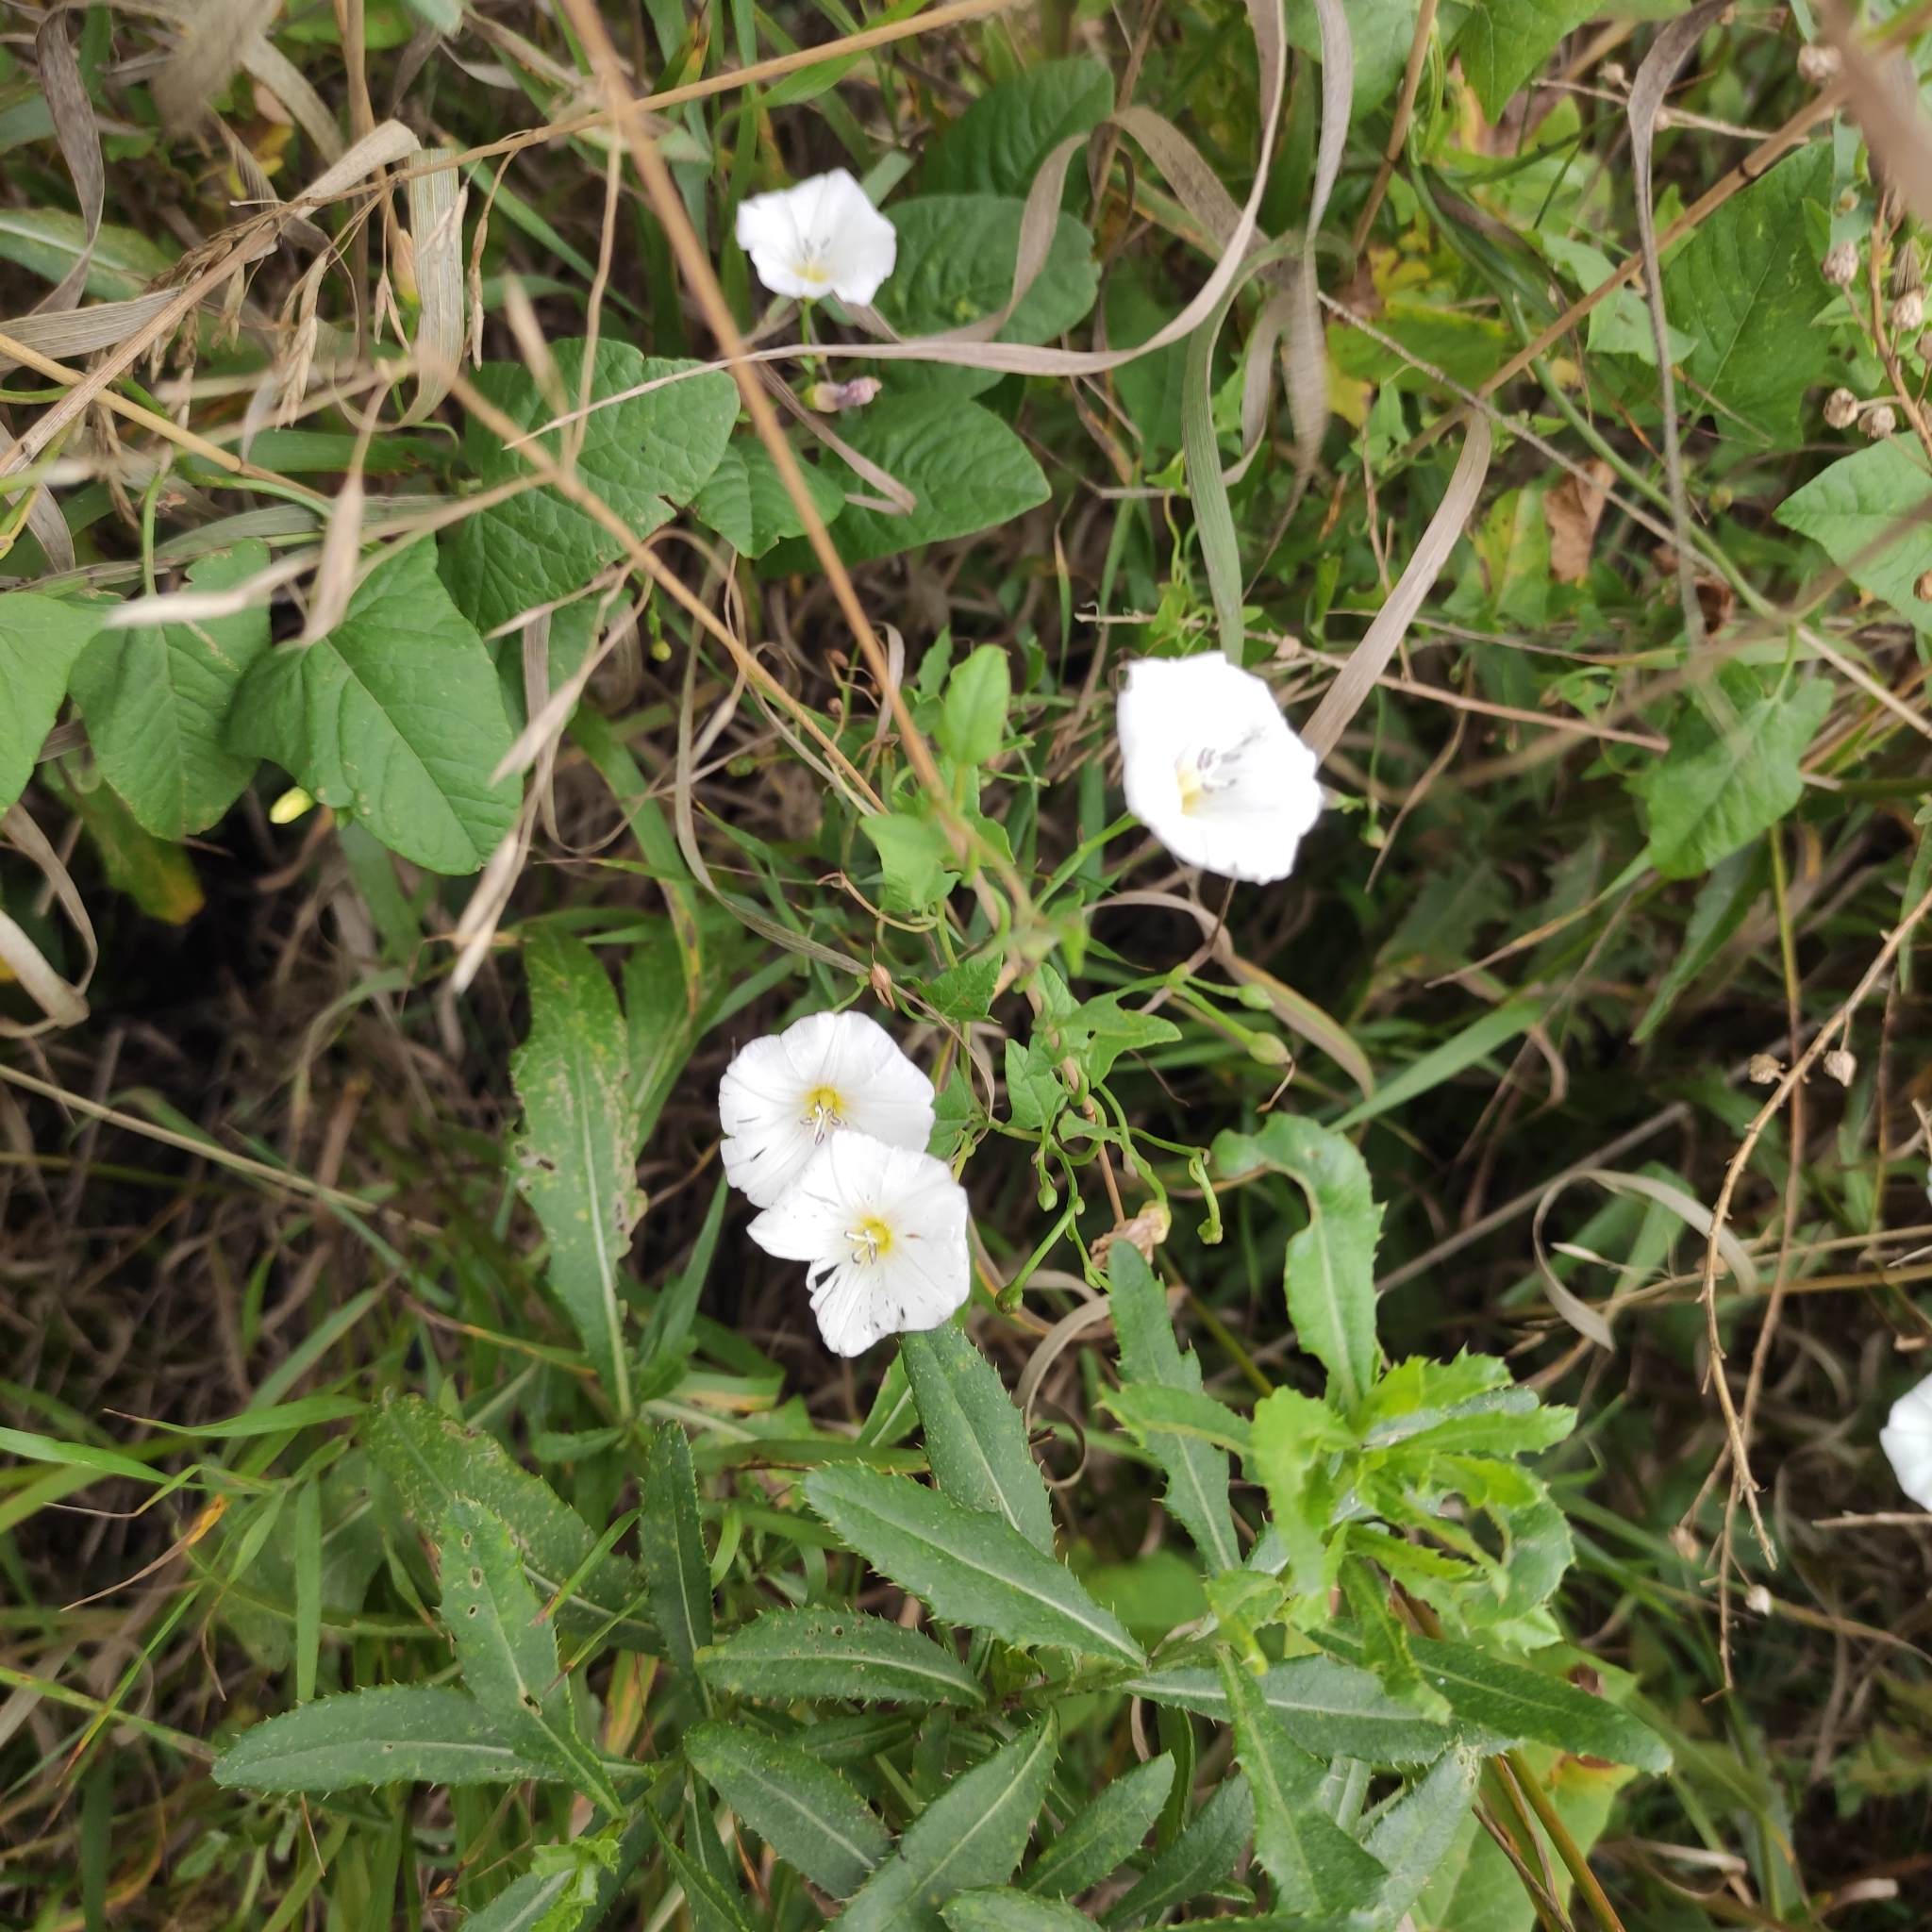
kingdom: Plantae
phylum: Tracheophyta
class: Magnoliopsida
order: Solanales
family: Convolvulaceae
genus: Convolvulus
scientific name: Convolvulus arvensis
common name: Field bindweed
